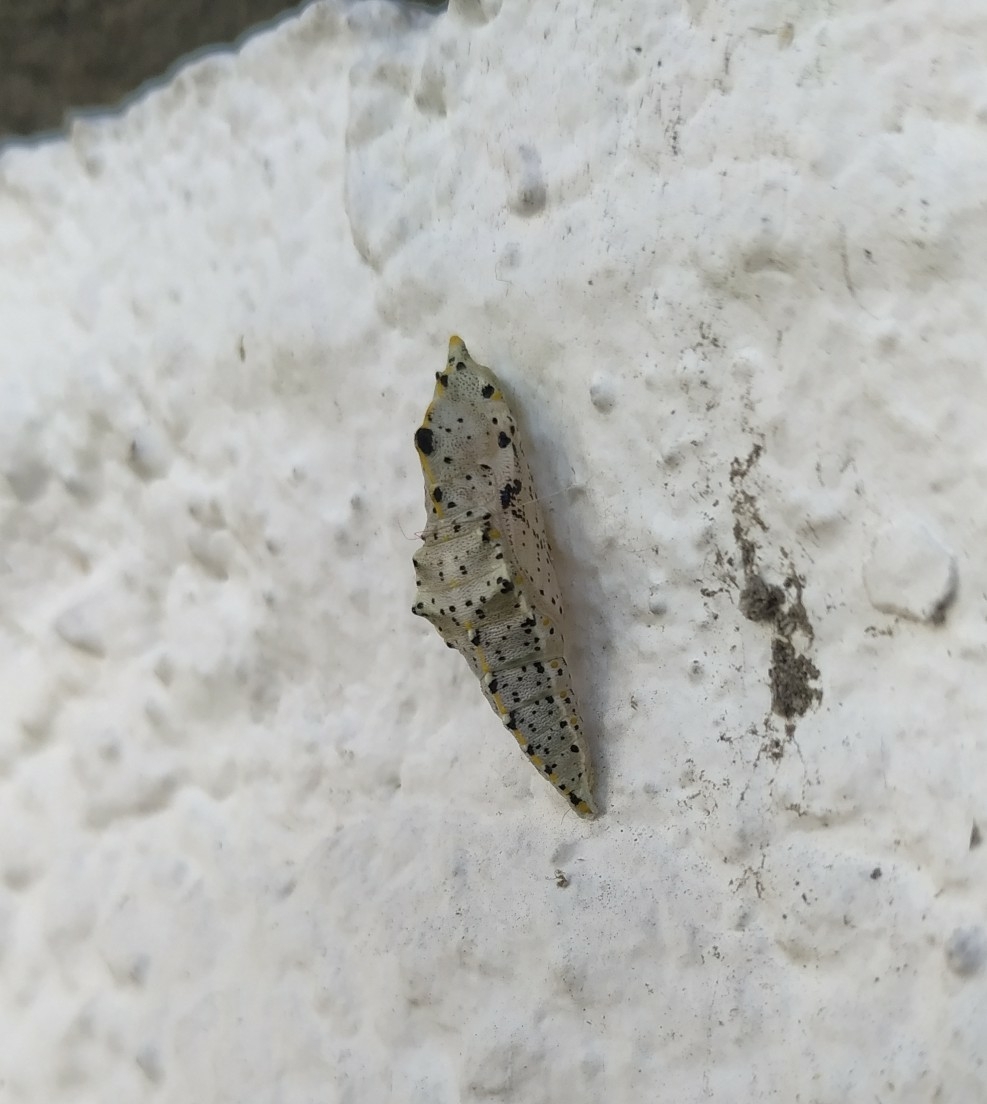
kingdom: Animalia
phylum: Arthropoda
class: Insecta
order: Lepidoptera
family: Pieridae
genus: Pieris
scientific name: Pieris brassicae
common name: Large white
